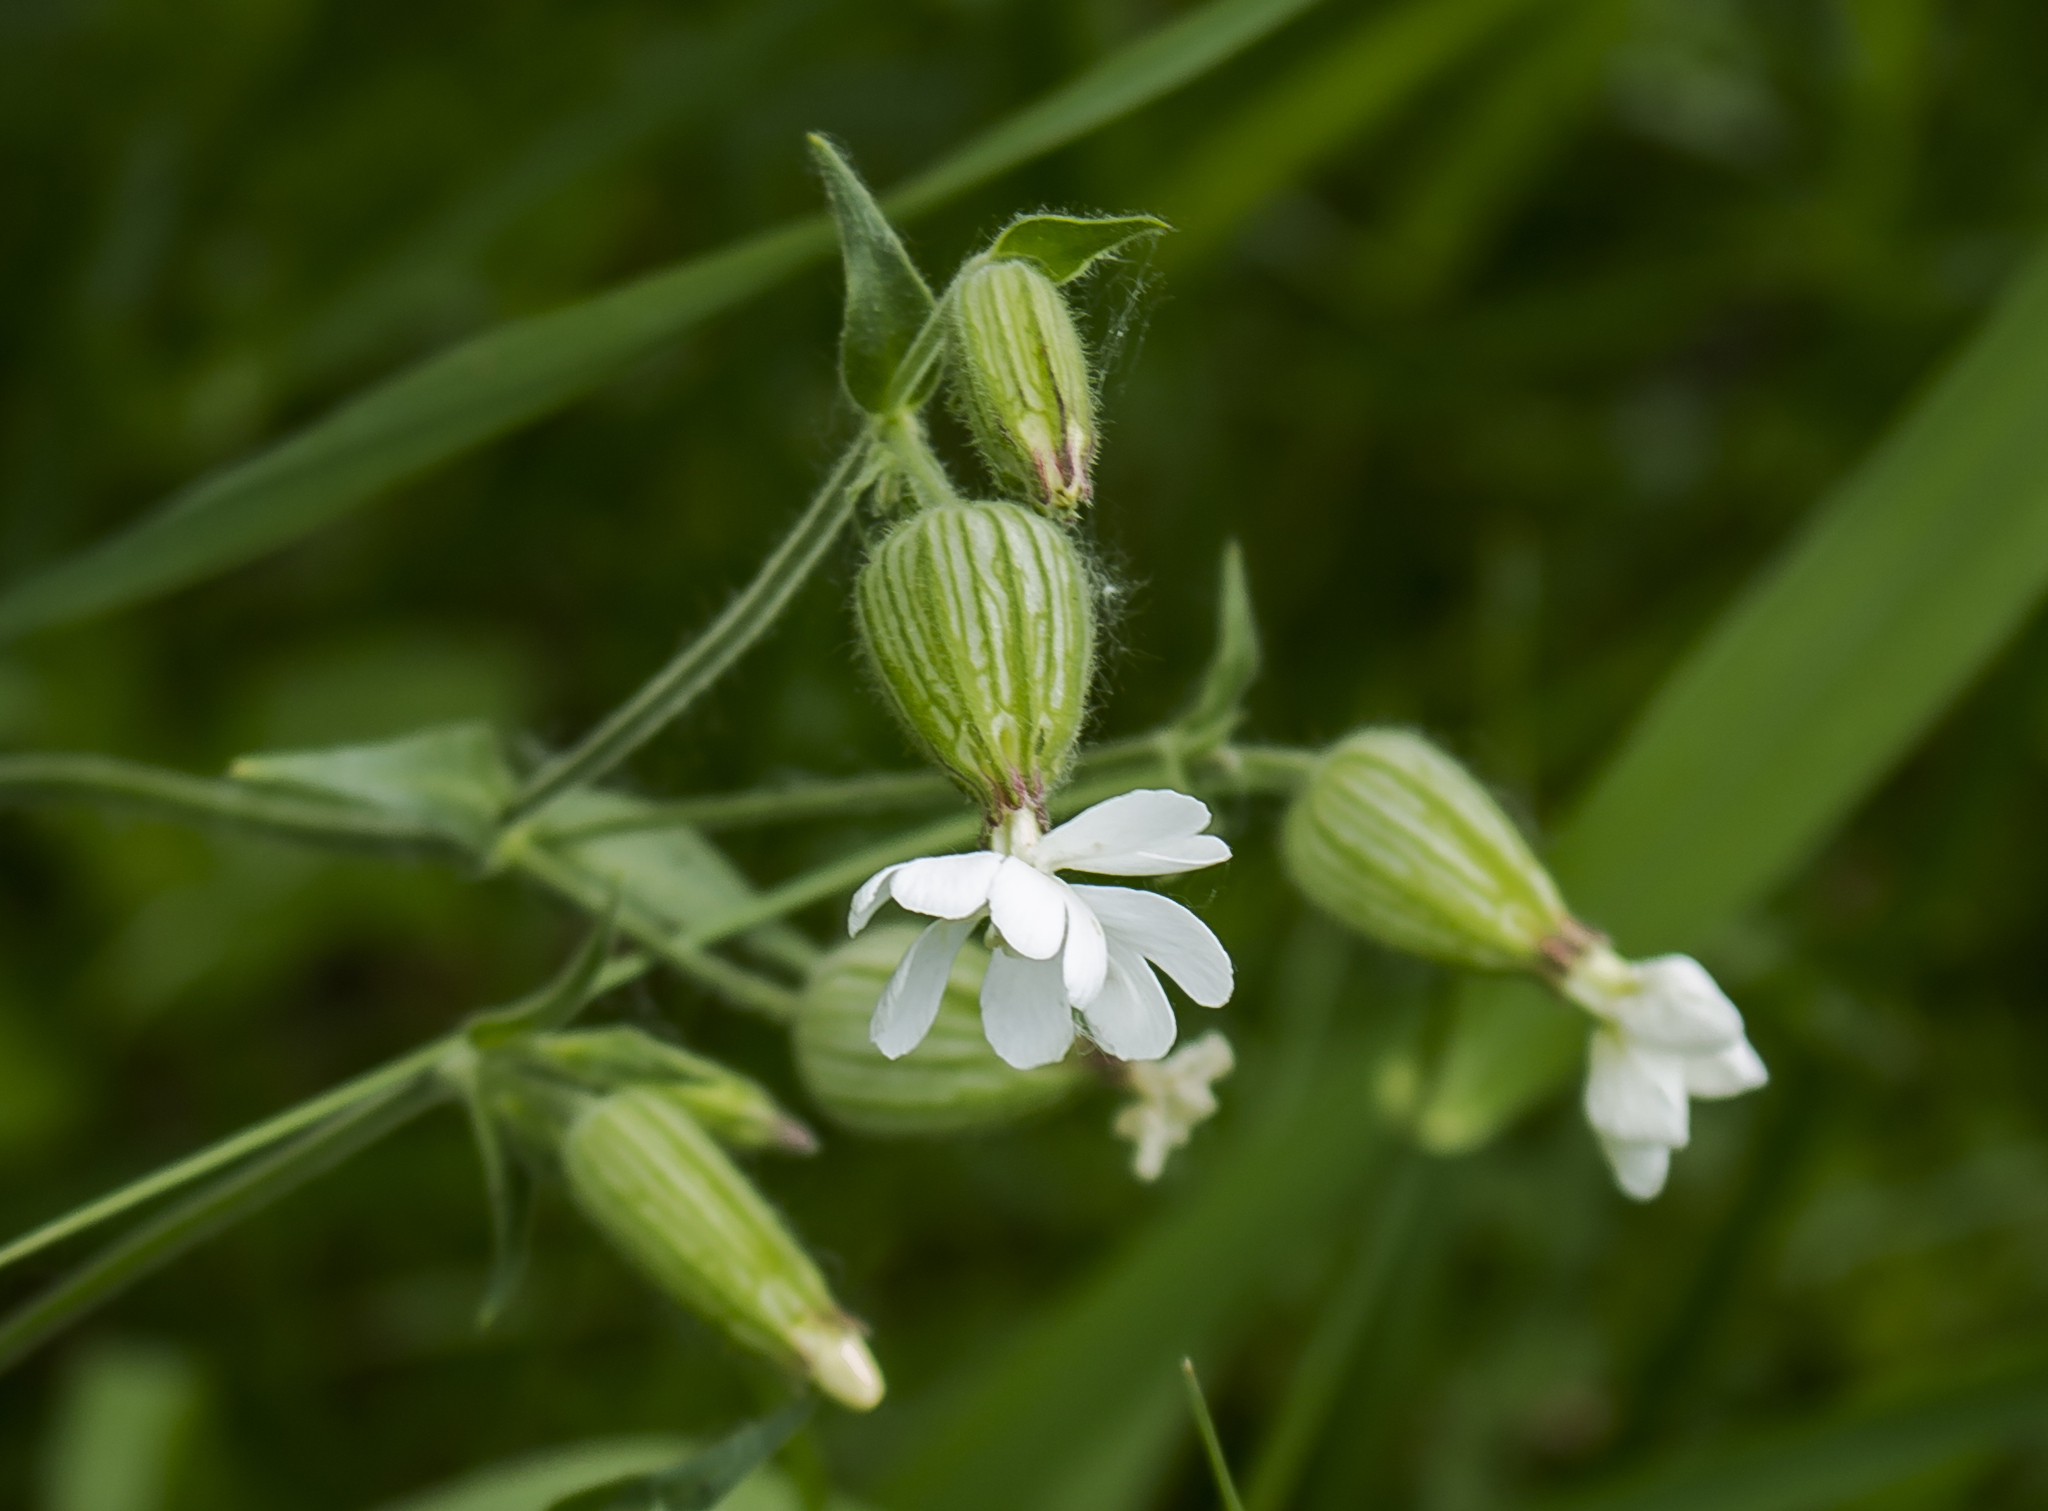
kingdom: Plantae
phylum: Tracheophyta
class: Magnoliopsida
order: Caryophyllales
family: Caryophyllaceae
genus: Silene
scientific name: Silene latifolia
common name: White campion
